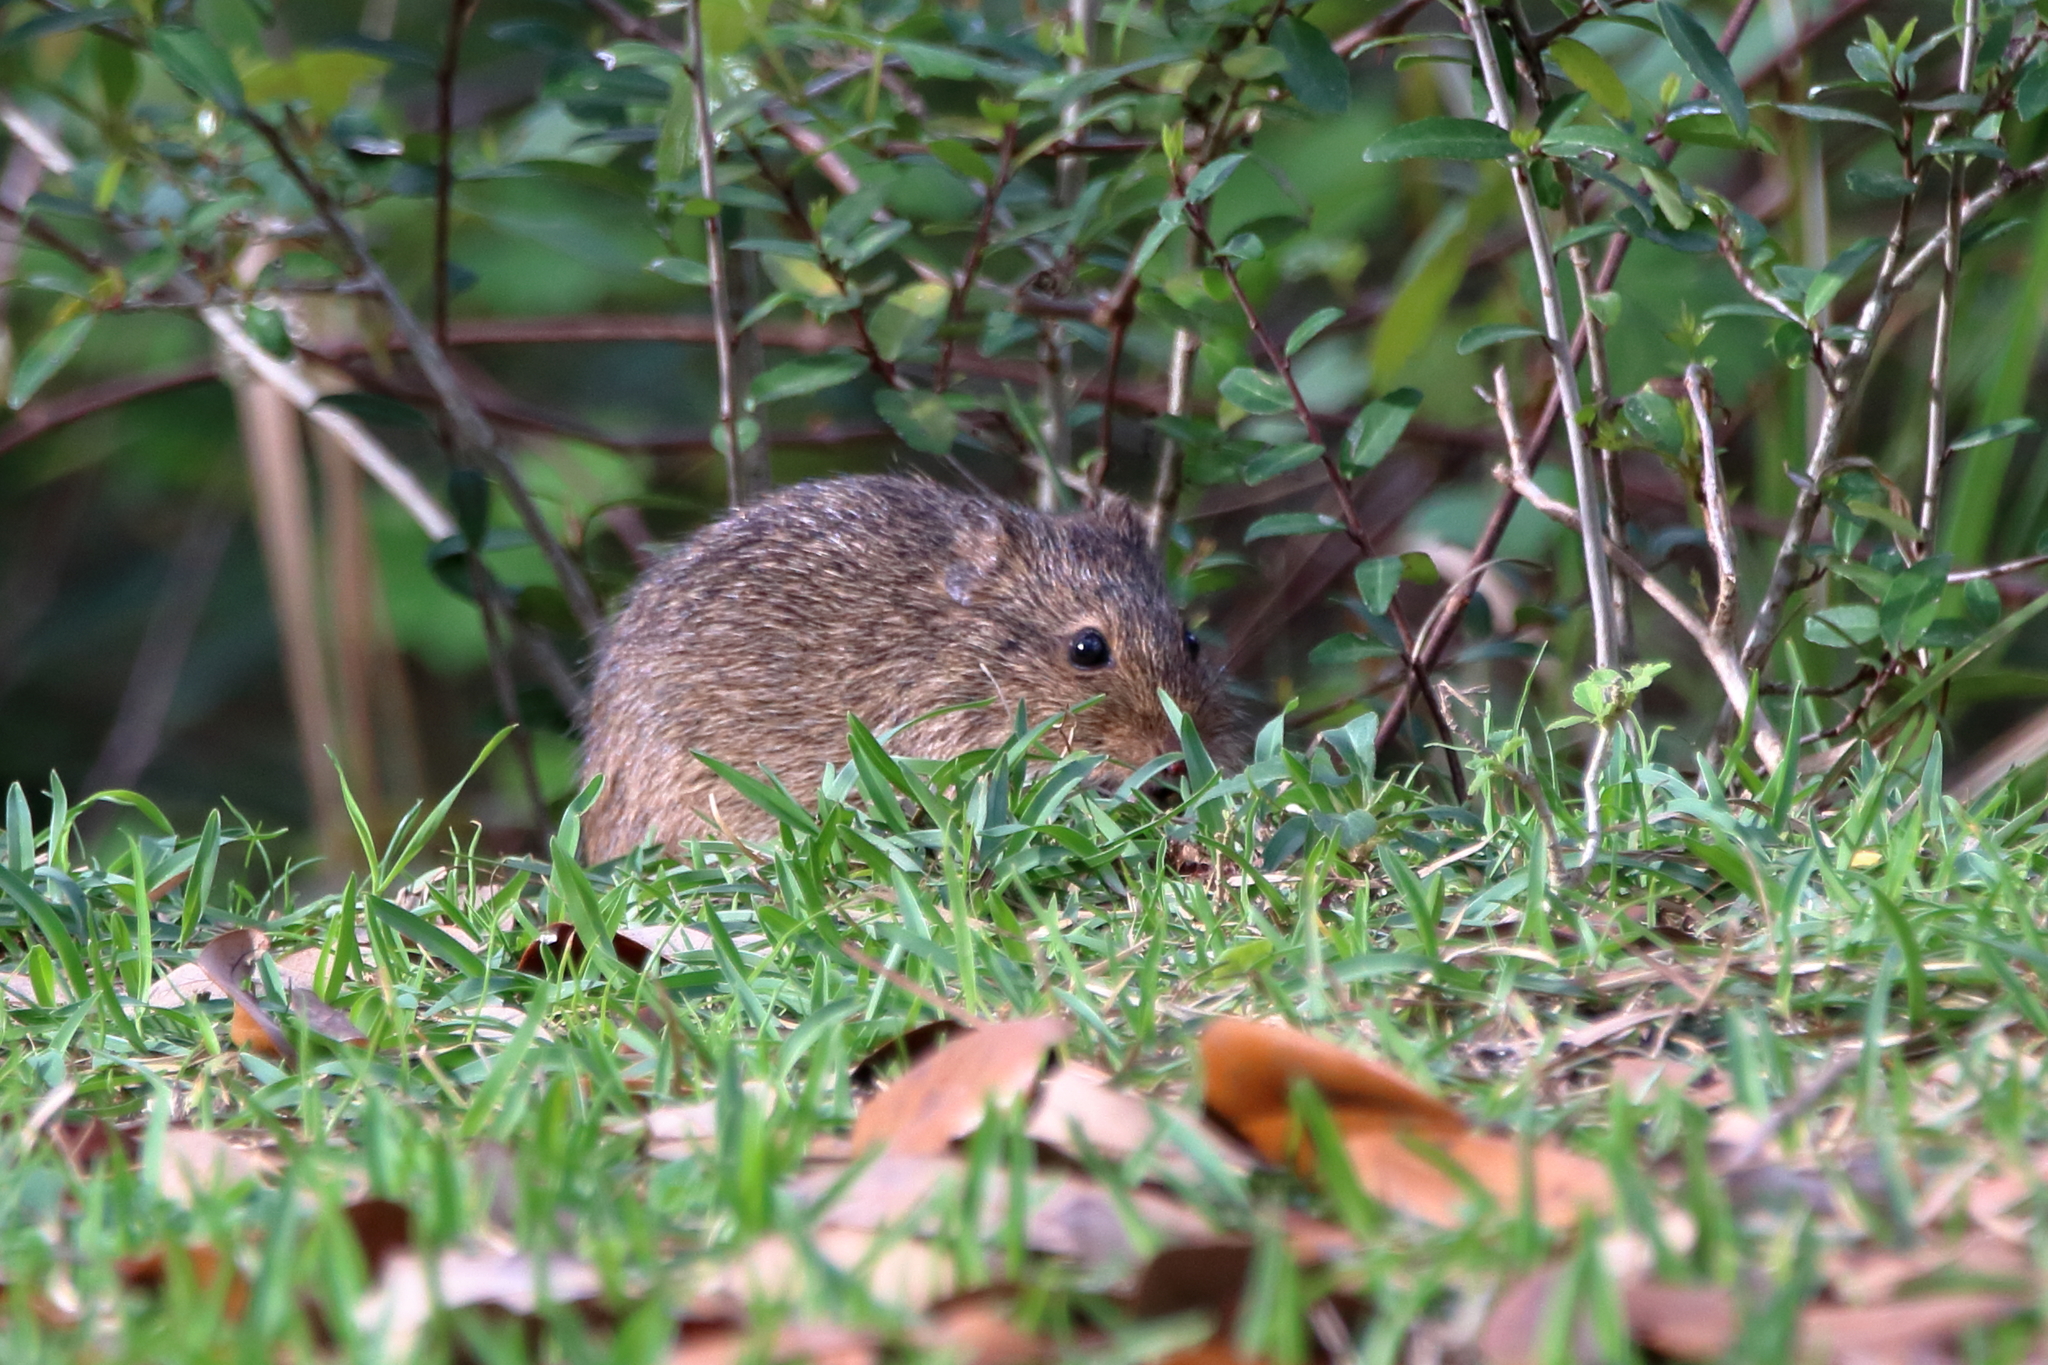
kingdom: Animalia
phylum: Chordata
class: Mammalia
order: Rodentia
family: Cricetidae
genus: Sigmodon
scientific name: Sigmodon hispidus
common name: Hispid cotton rat
